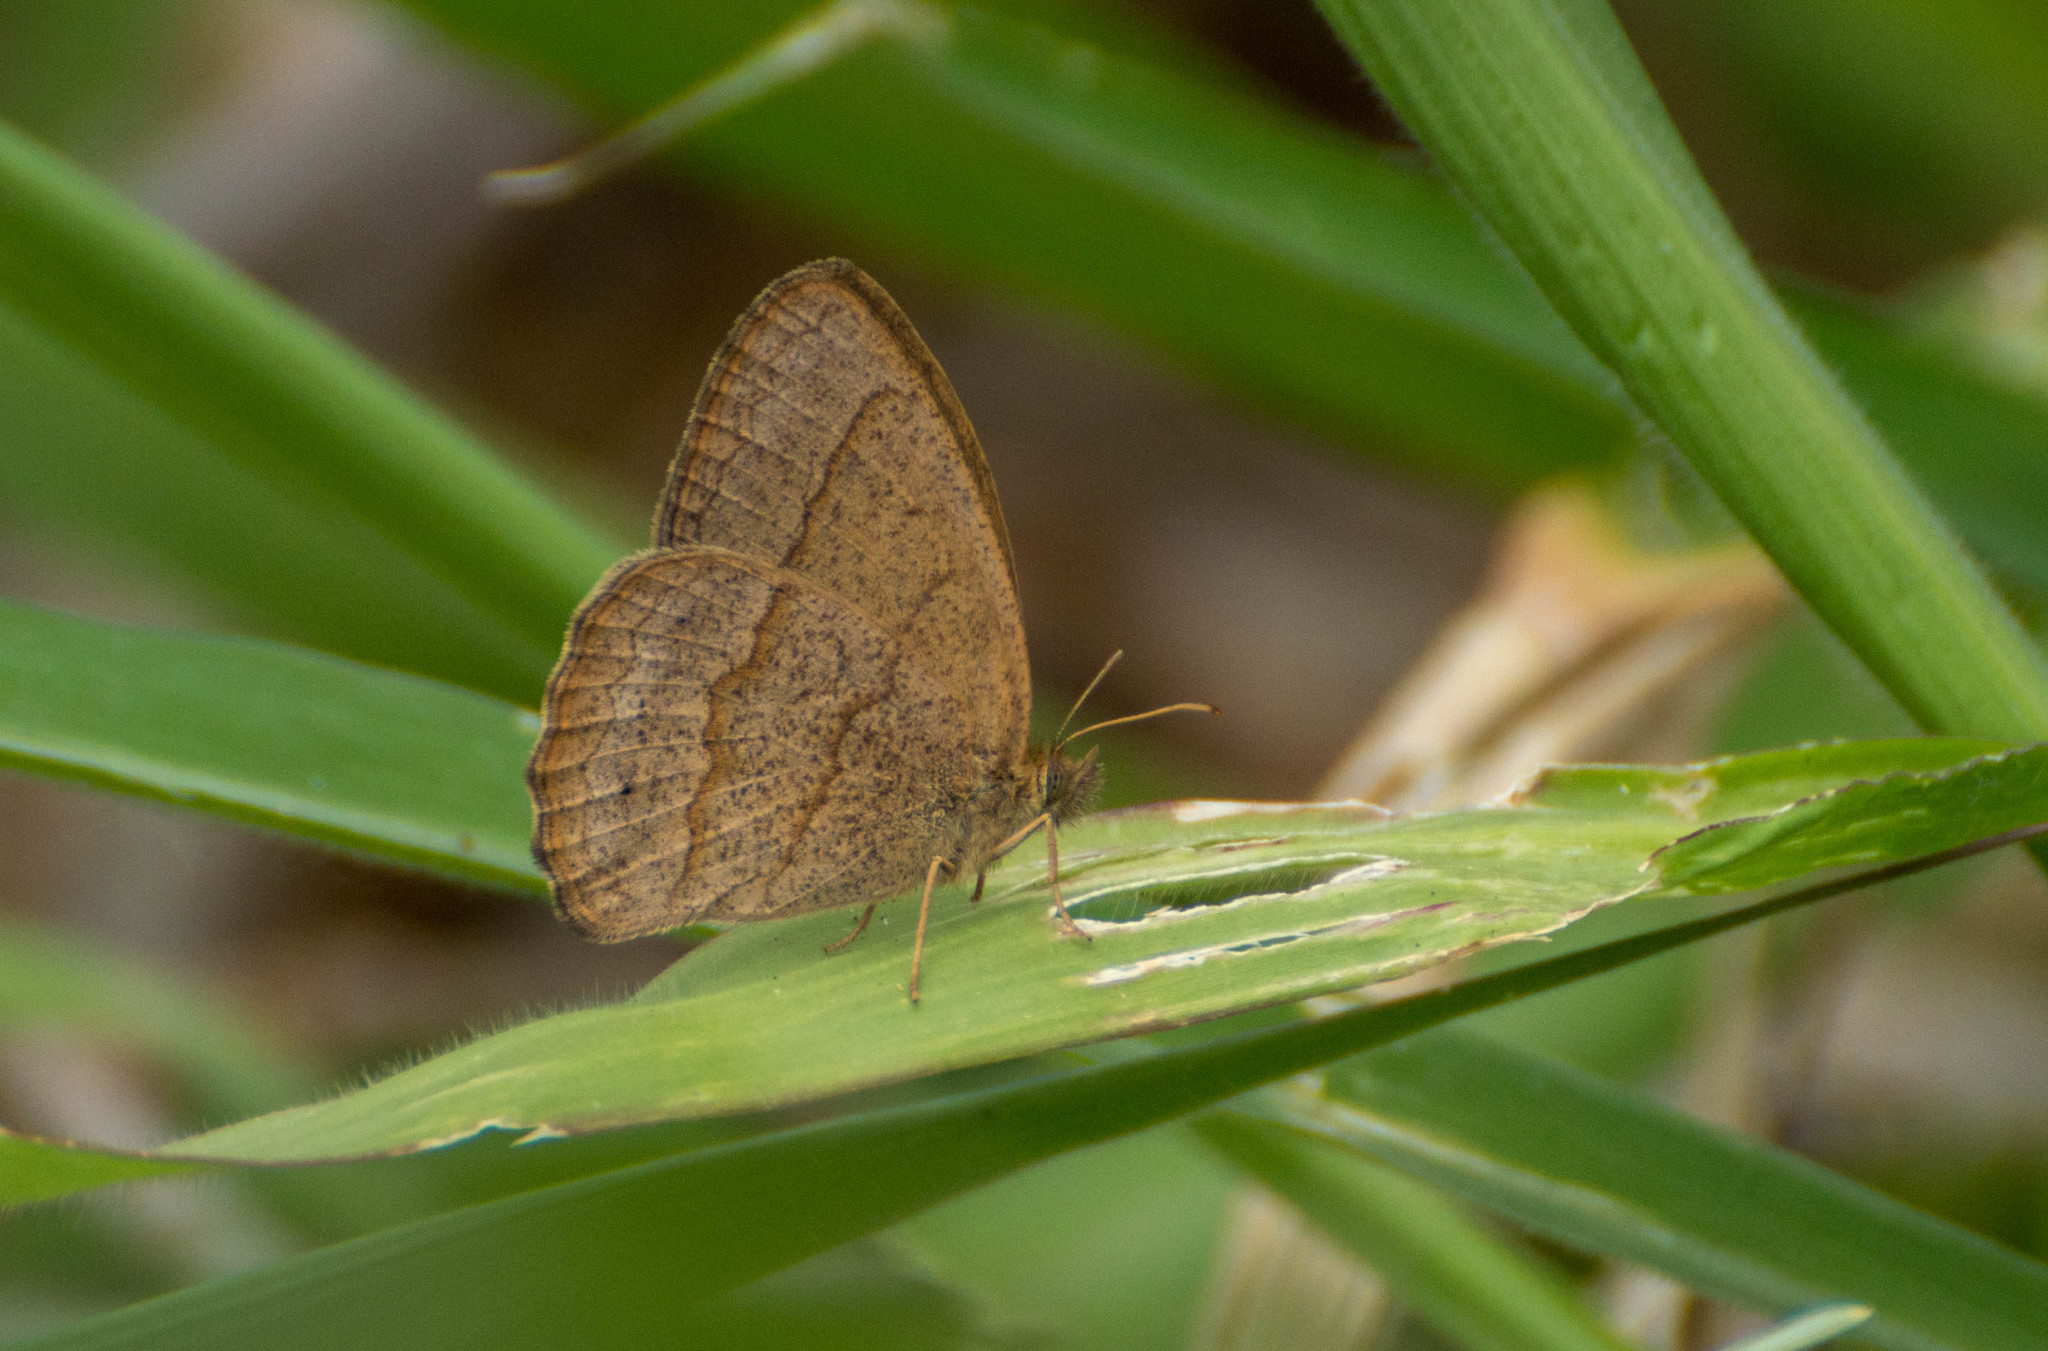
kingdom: Animalia
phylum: Arthropoda
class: Insecta
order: Lepidoptera
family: Nymphalidae
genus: Yphthimoides
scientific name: Yphthimoides celmis
